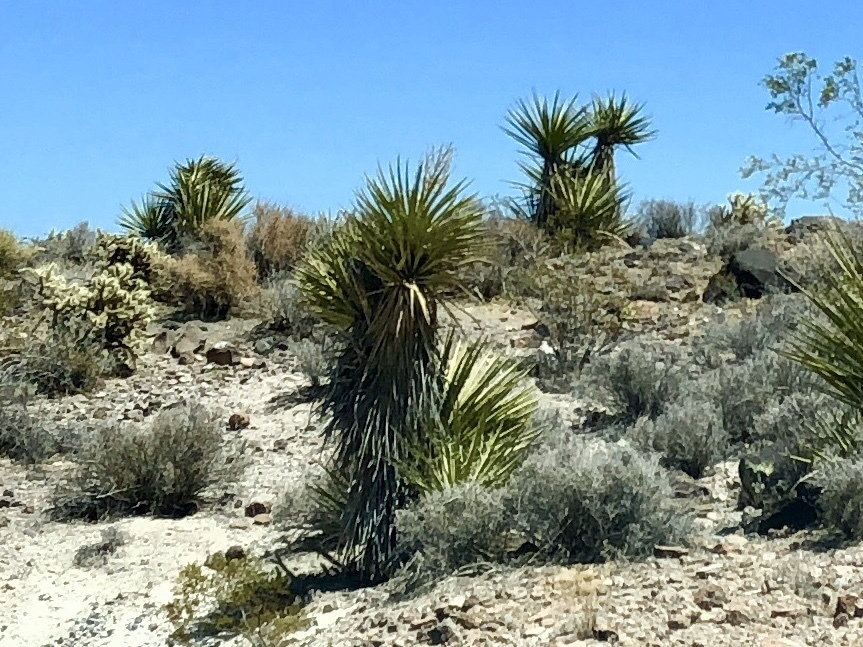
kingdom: Plantae
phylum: Tracheophyta
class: Liliopsida
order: Asparagales
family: Asparagaceae
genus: Yucca
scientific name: Yucca schidigera
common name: Mojave yucca
